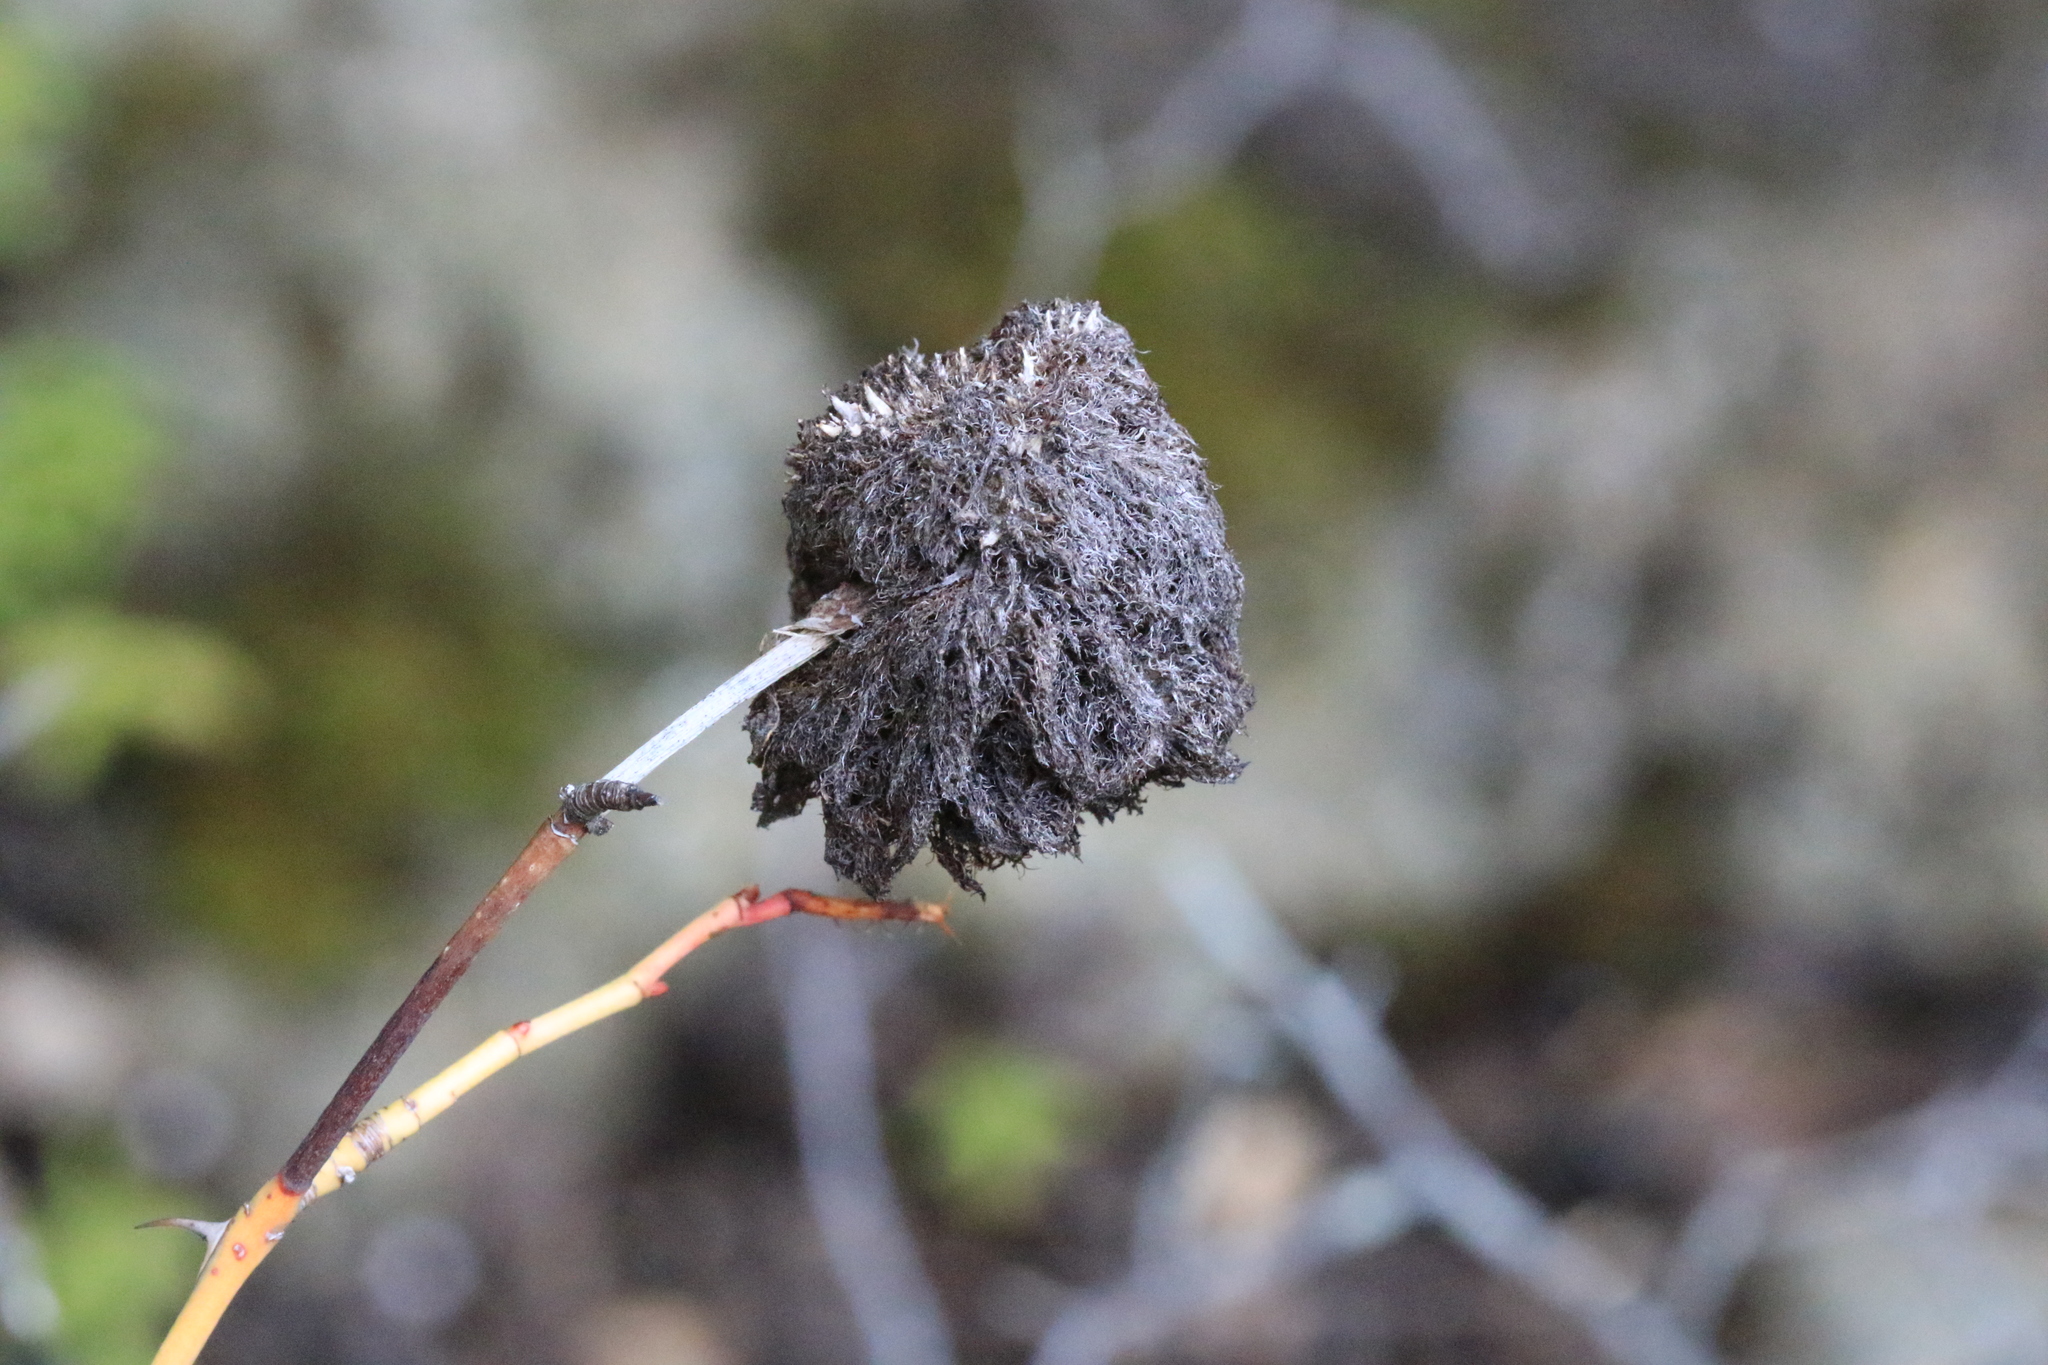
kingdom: Animalia
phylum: Arthropoda
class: Insecta
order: Hymenoptera
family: Cynipidae
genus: Diplolepis
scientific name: Diplolepis rosae
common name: Bedeguar gall
